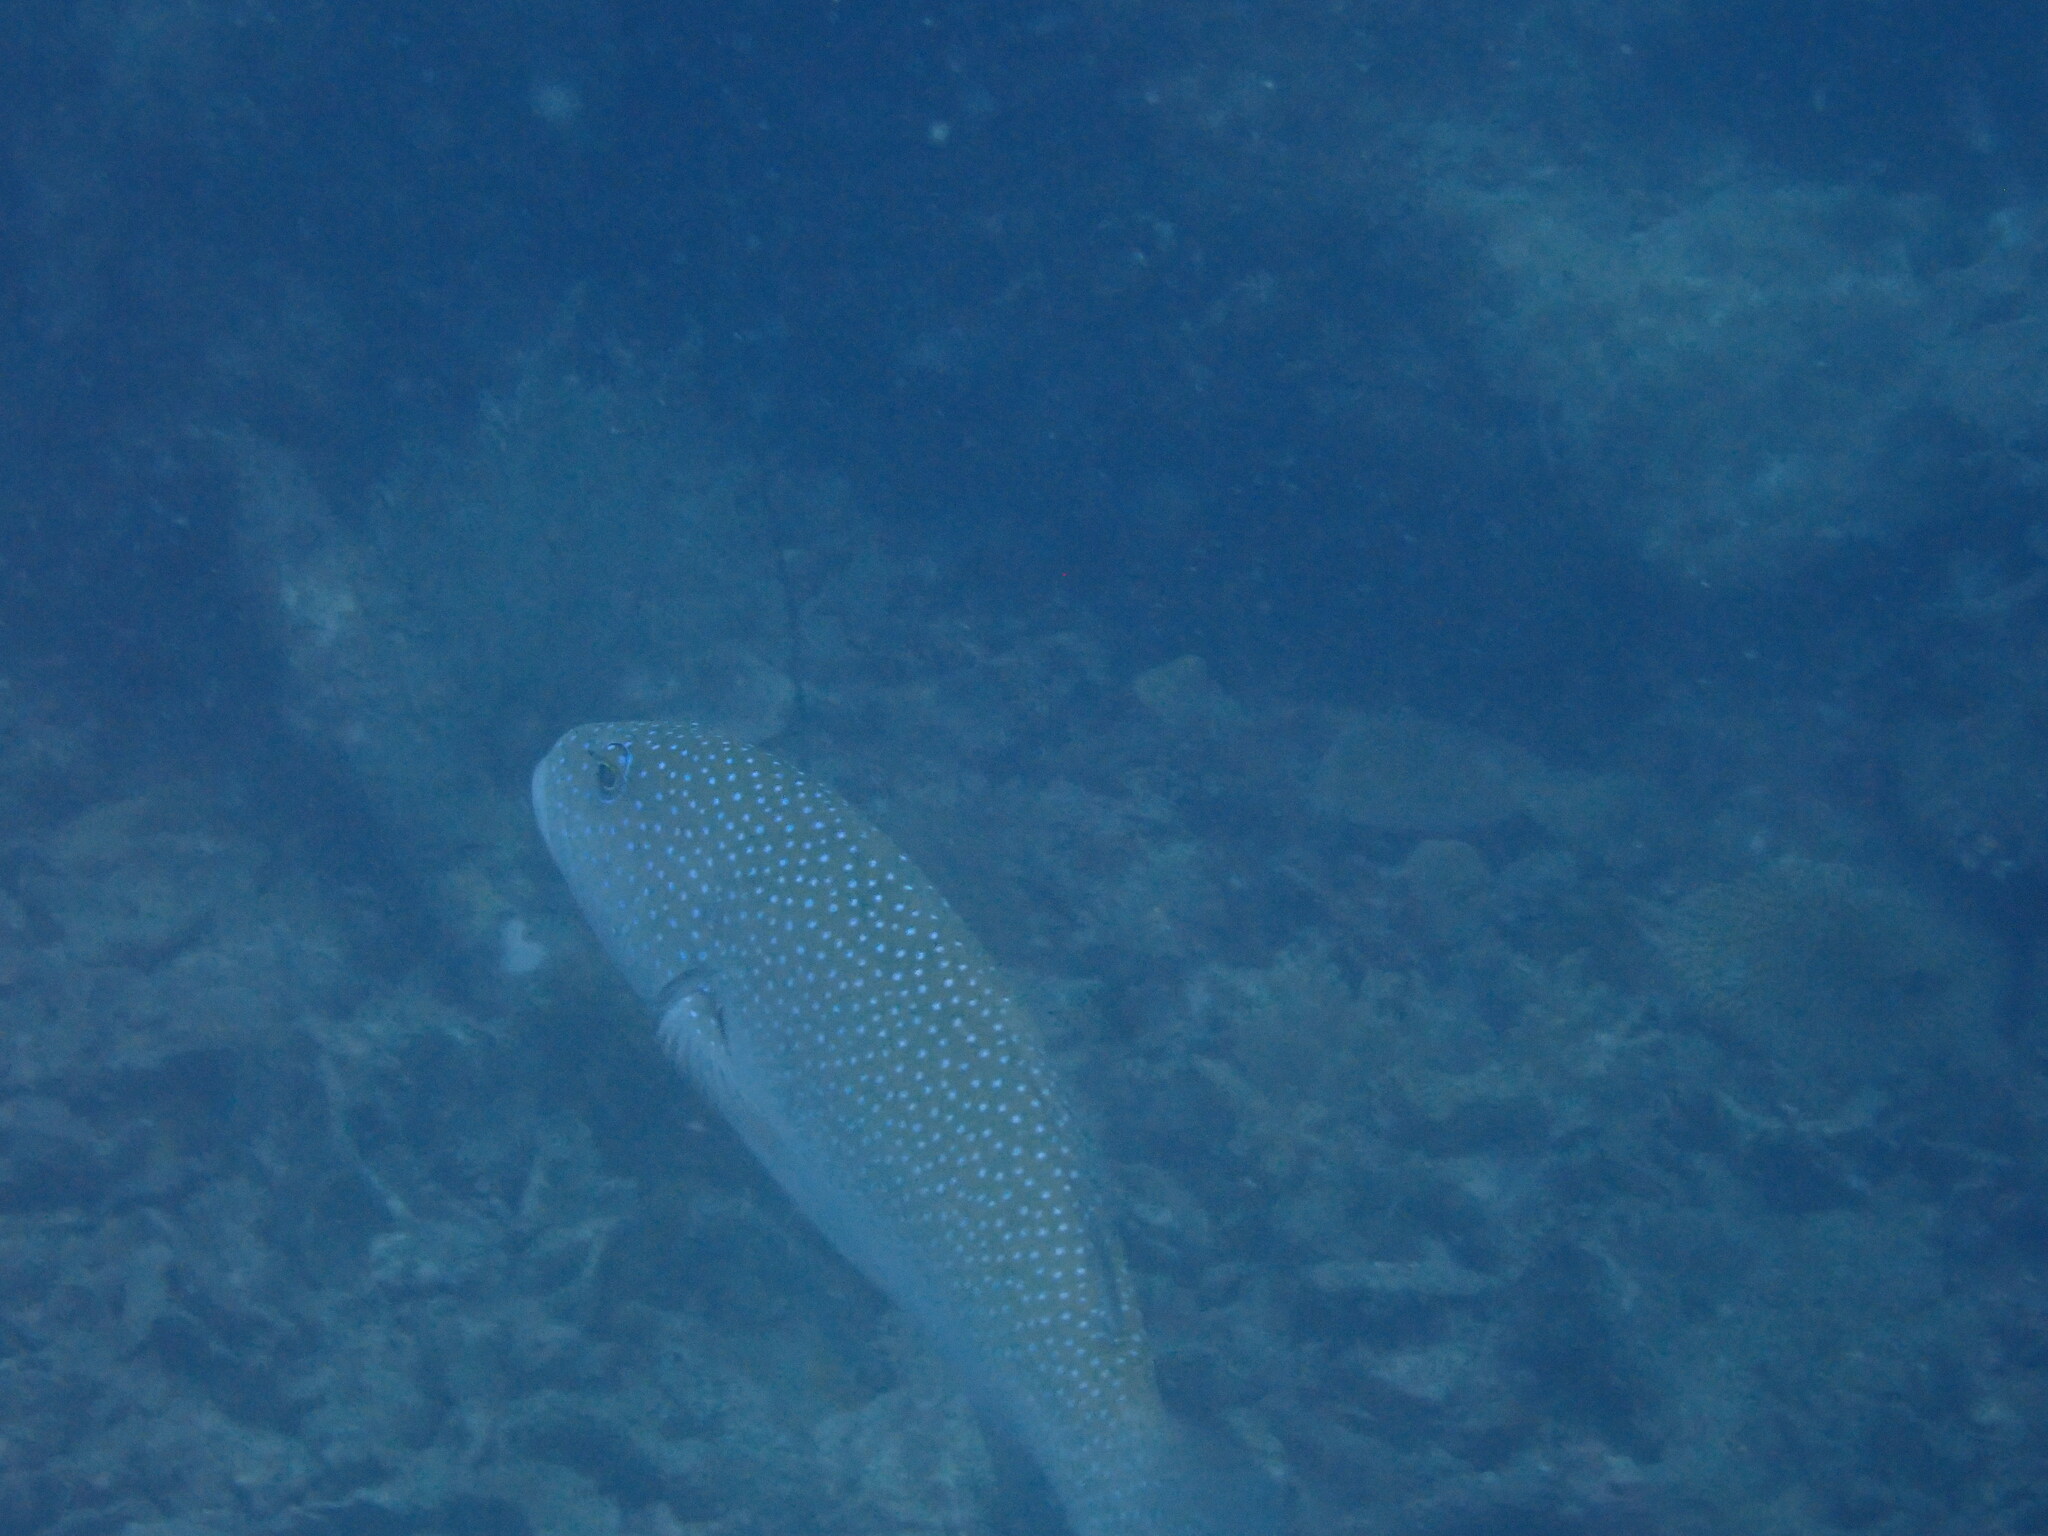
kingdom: Animalia
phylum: Chordata
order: Perciformes
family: Serranidae
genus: Plectropomus
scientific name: Plectropomus leopardus
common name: Coral trout
